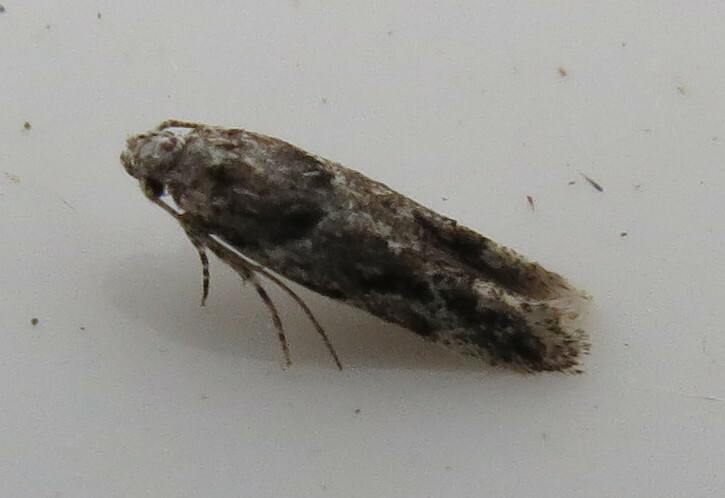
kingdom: Animalia
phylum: Arthropoda
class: Insecta
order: Lepidoptera
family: Gelechiidae
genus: Recurvaria
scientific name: Recurvaria nanella
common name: Gelechiid moth
